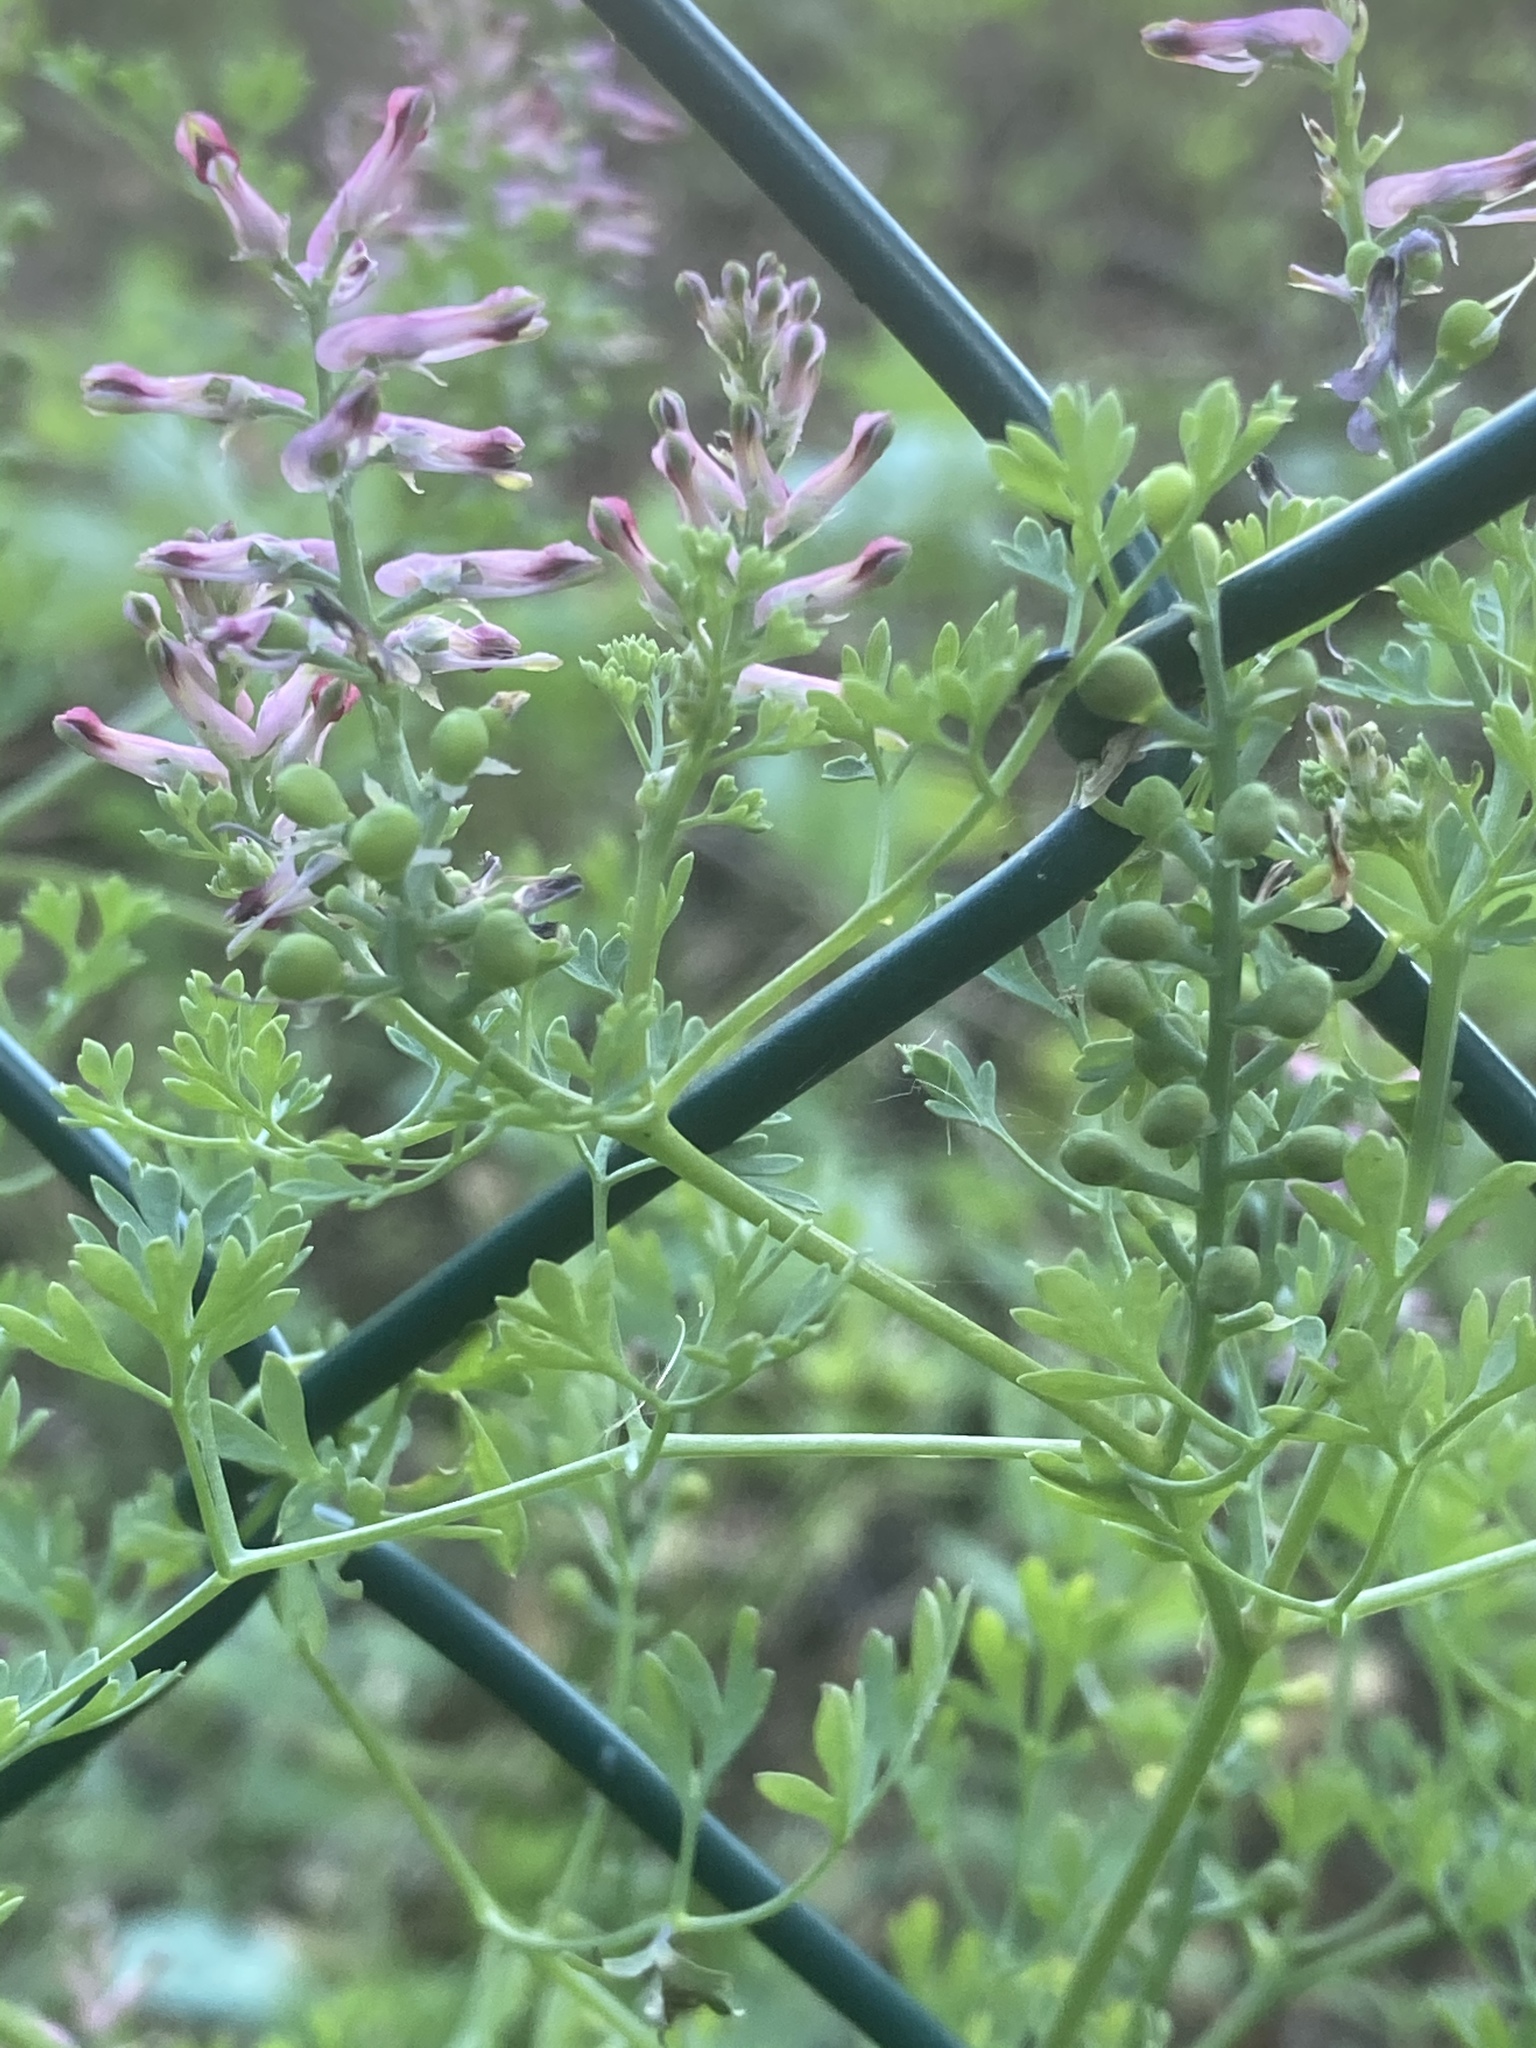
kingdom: Plantae
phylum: Tracheophyta
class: Magnoliopsida
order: Ranunculales
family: Papaveraceae
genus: Fumaria
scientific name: Fumaria officinalis
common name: Common fumitory
